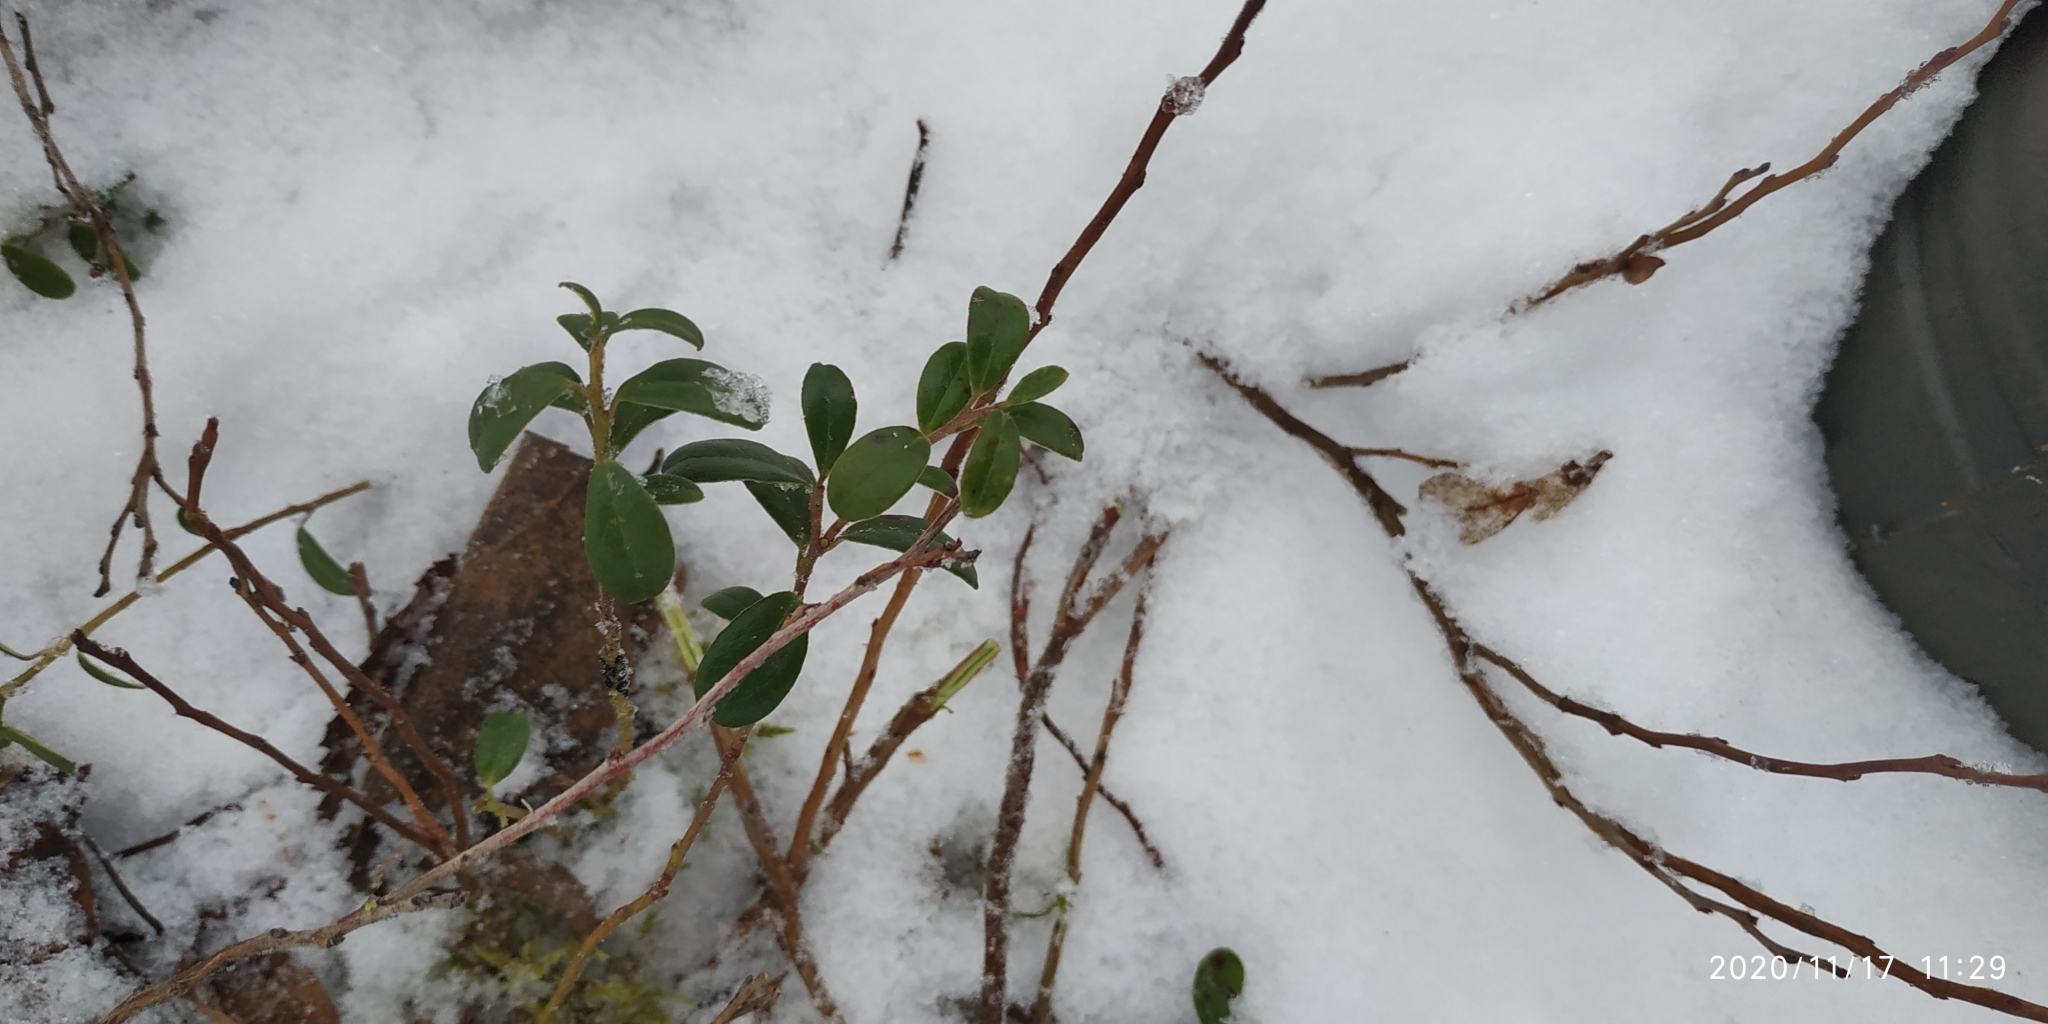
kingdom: Plantae
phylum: Tracheophyta
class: Magnoliopsida
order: Ericales
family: Ericaceae
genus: Vaccinium
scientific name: Vaccinium vitis-idaea
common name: Cowberry
